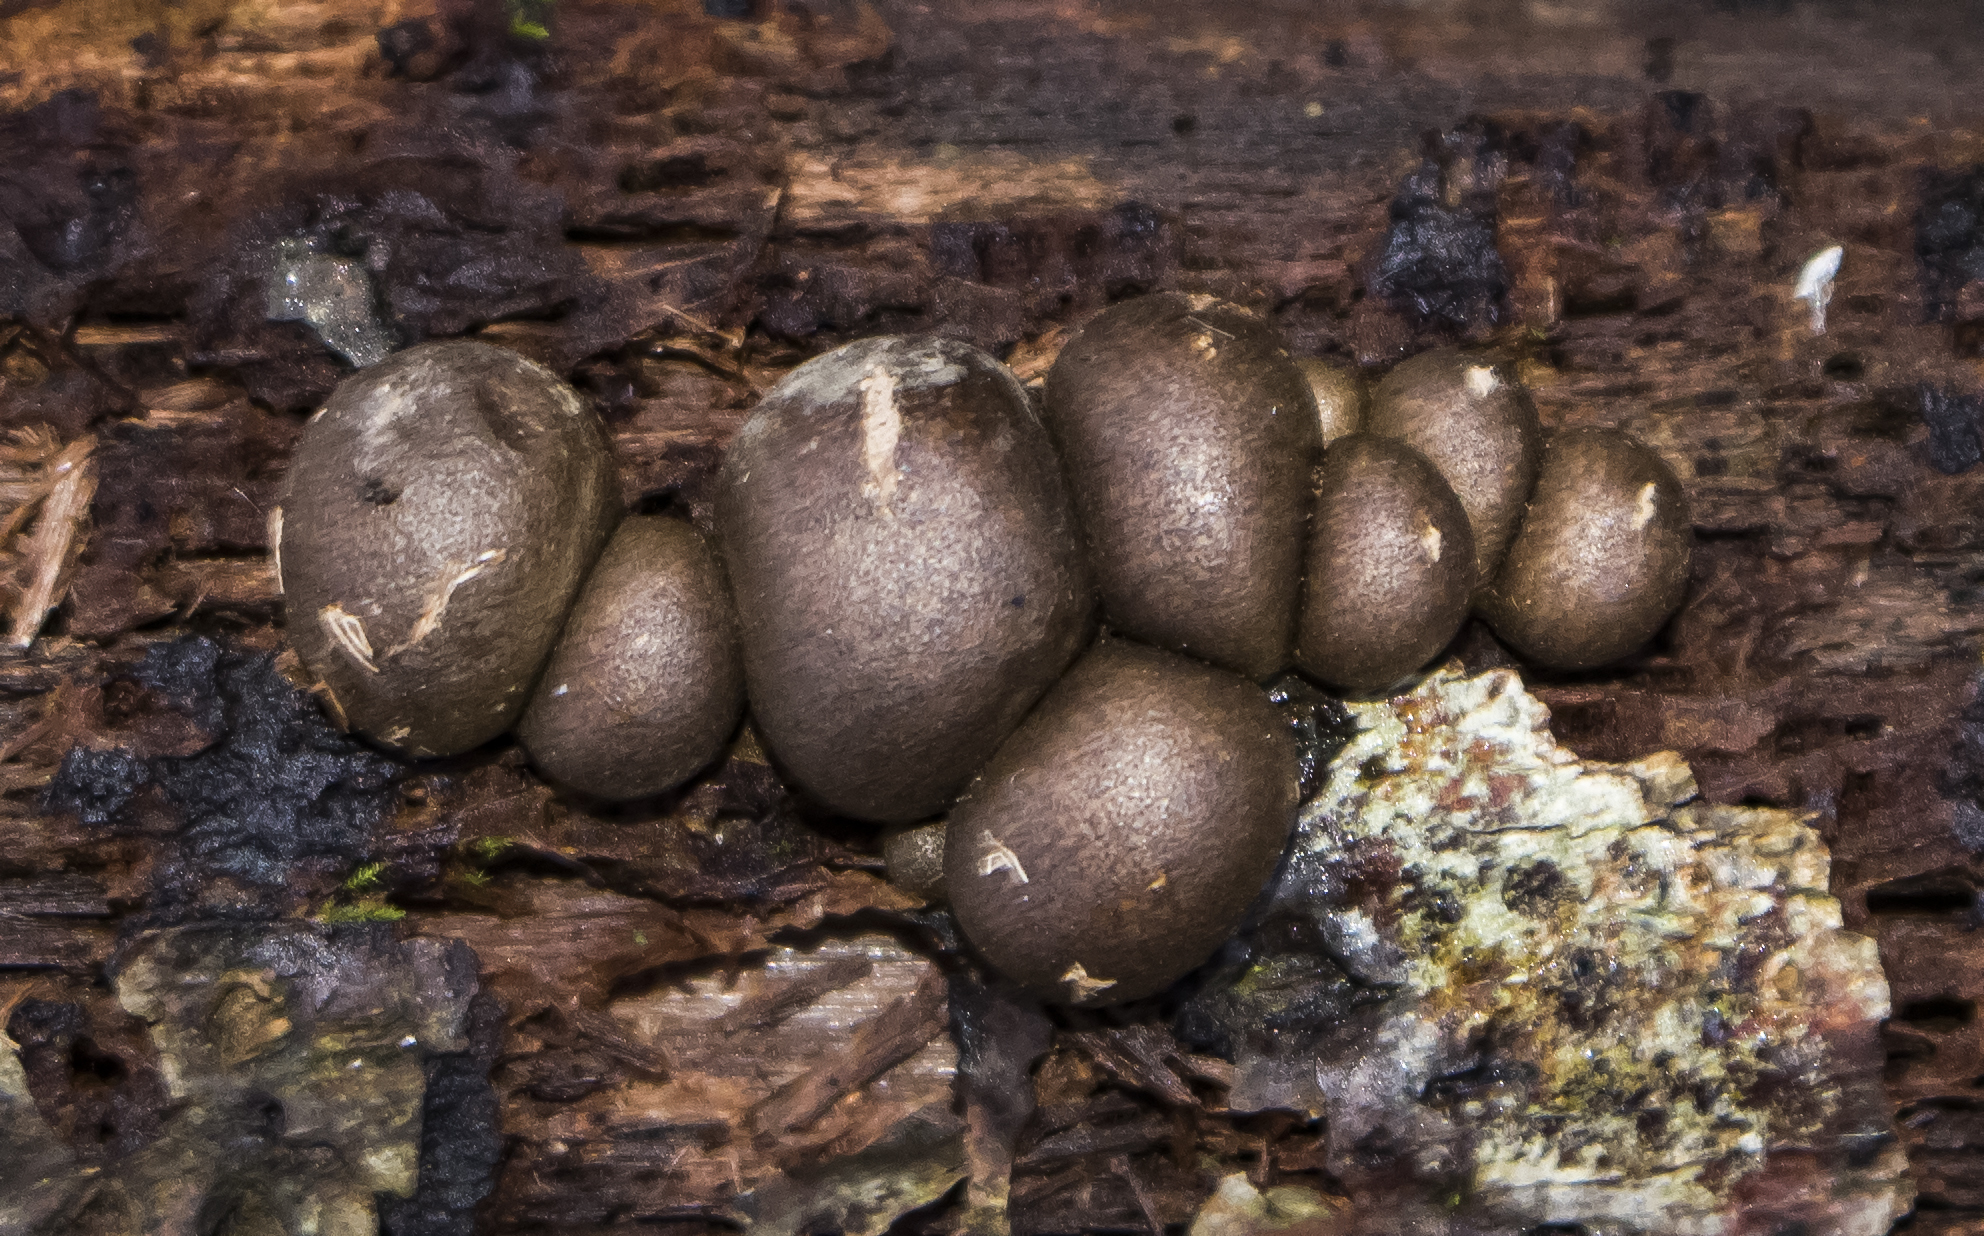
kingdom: Protozoa
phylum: Mycetozoa
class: Myxomycetes
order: Cribrariales
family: Tubiferaceae
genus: Lycogala
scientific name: Lycogala epidendrum
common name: Wolf's milk
